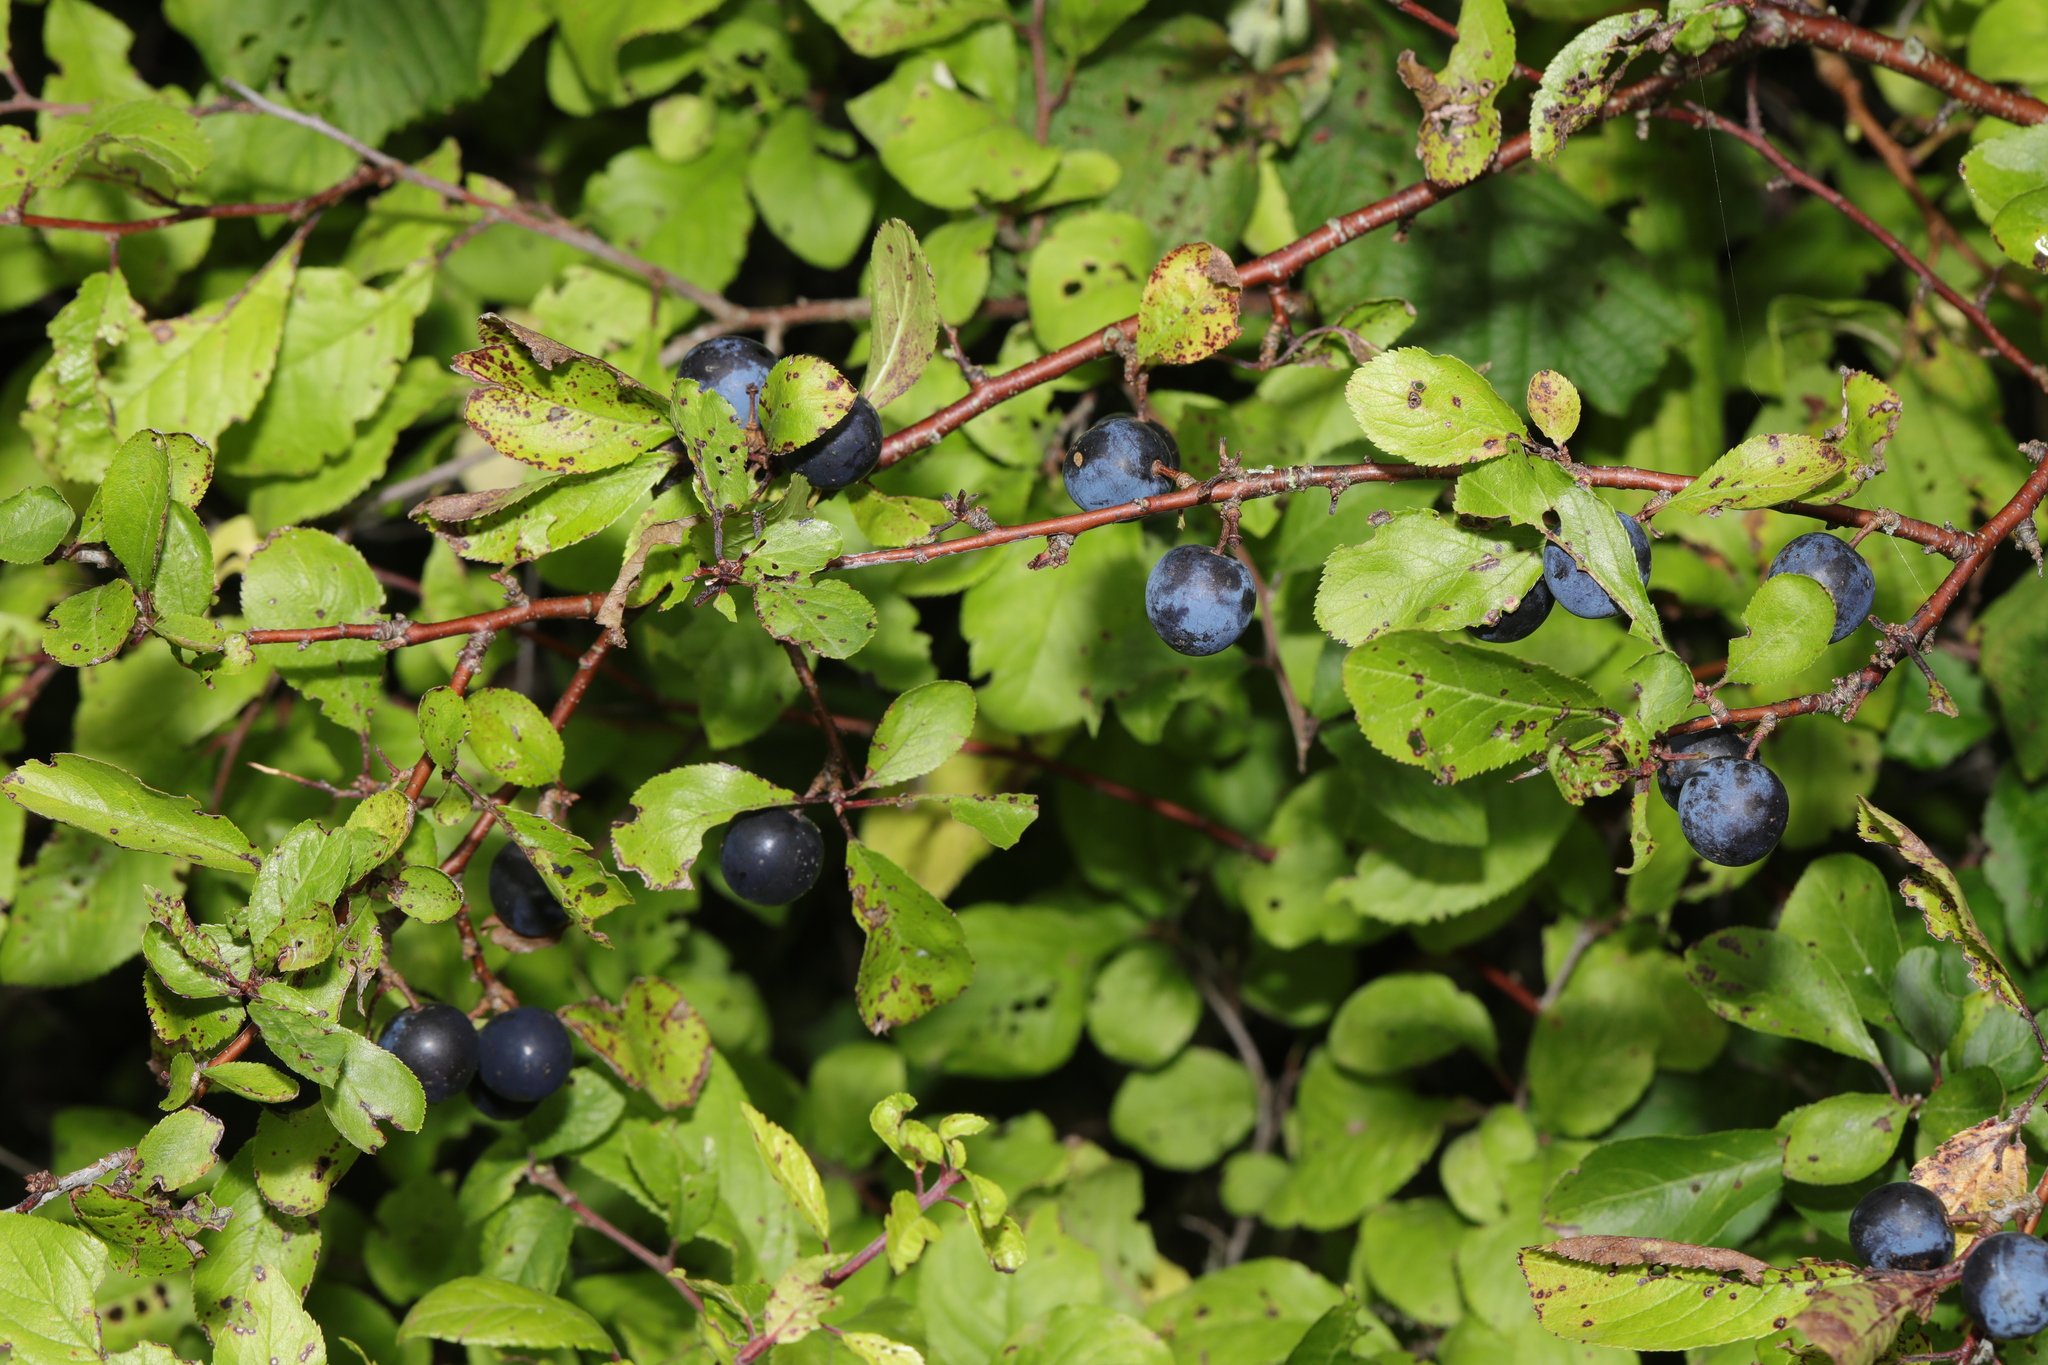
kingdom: Plantae
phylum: Tracheophyta
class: Magnoliopsida
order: Rosales
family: Rosaceae
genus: Prunus
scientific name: Prunus spinosa
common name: Blackthorn
